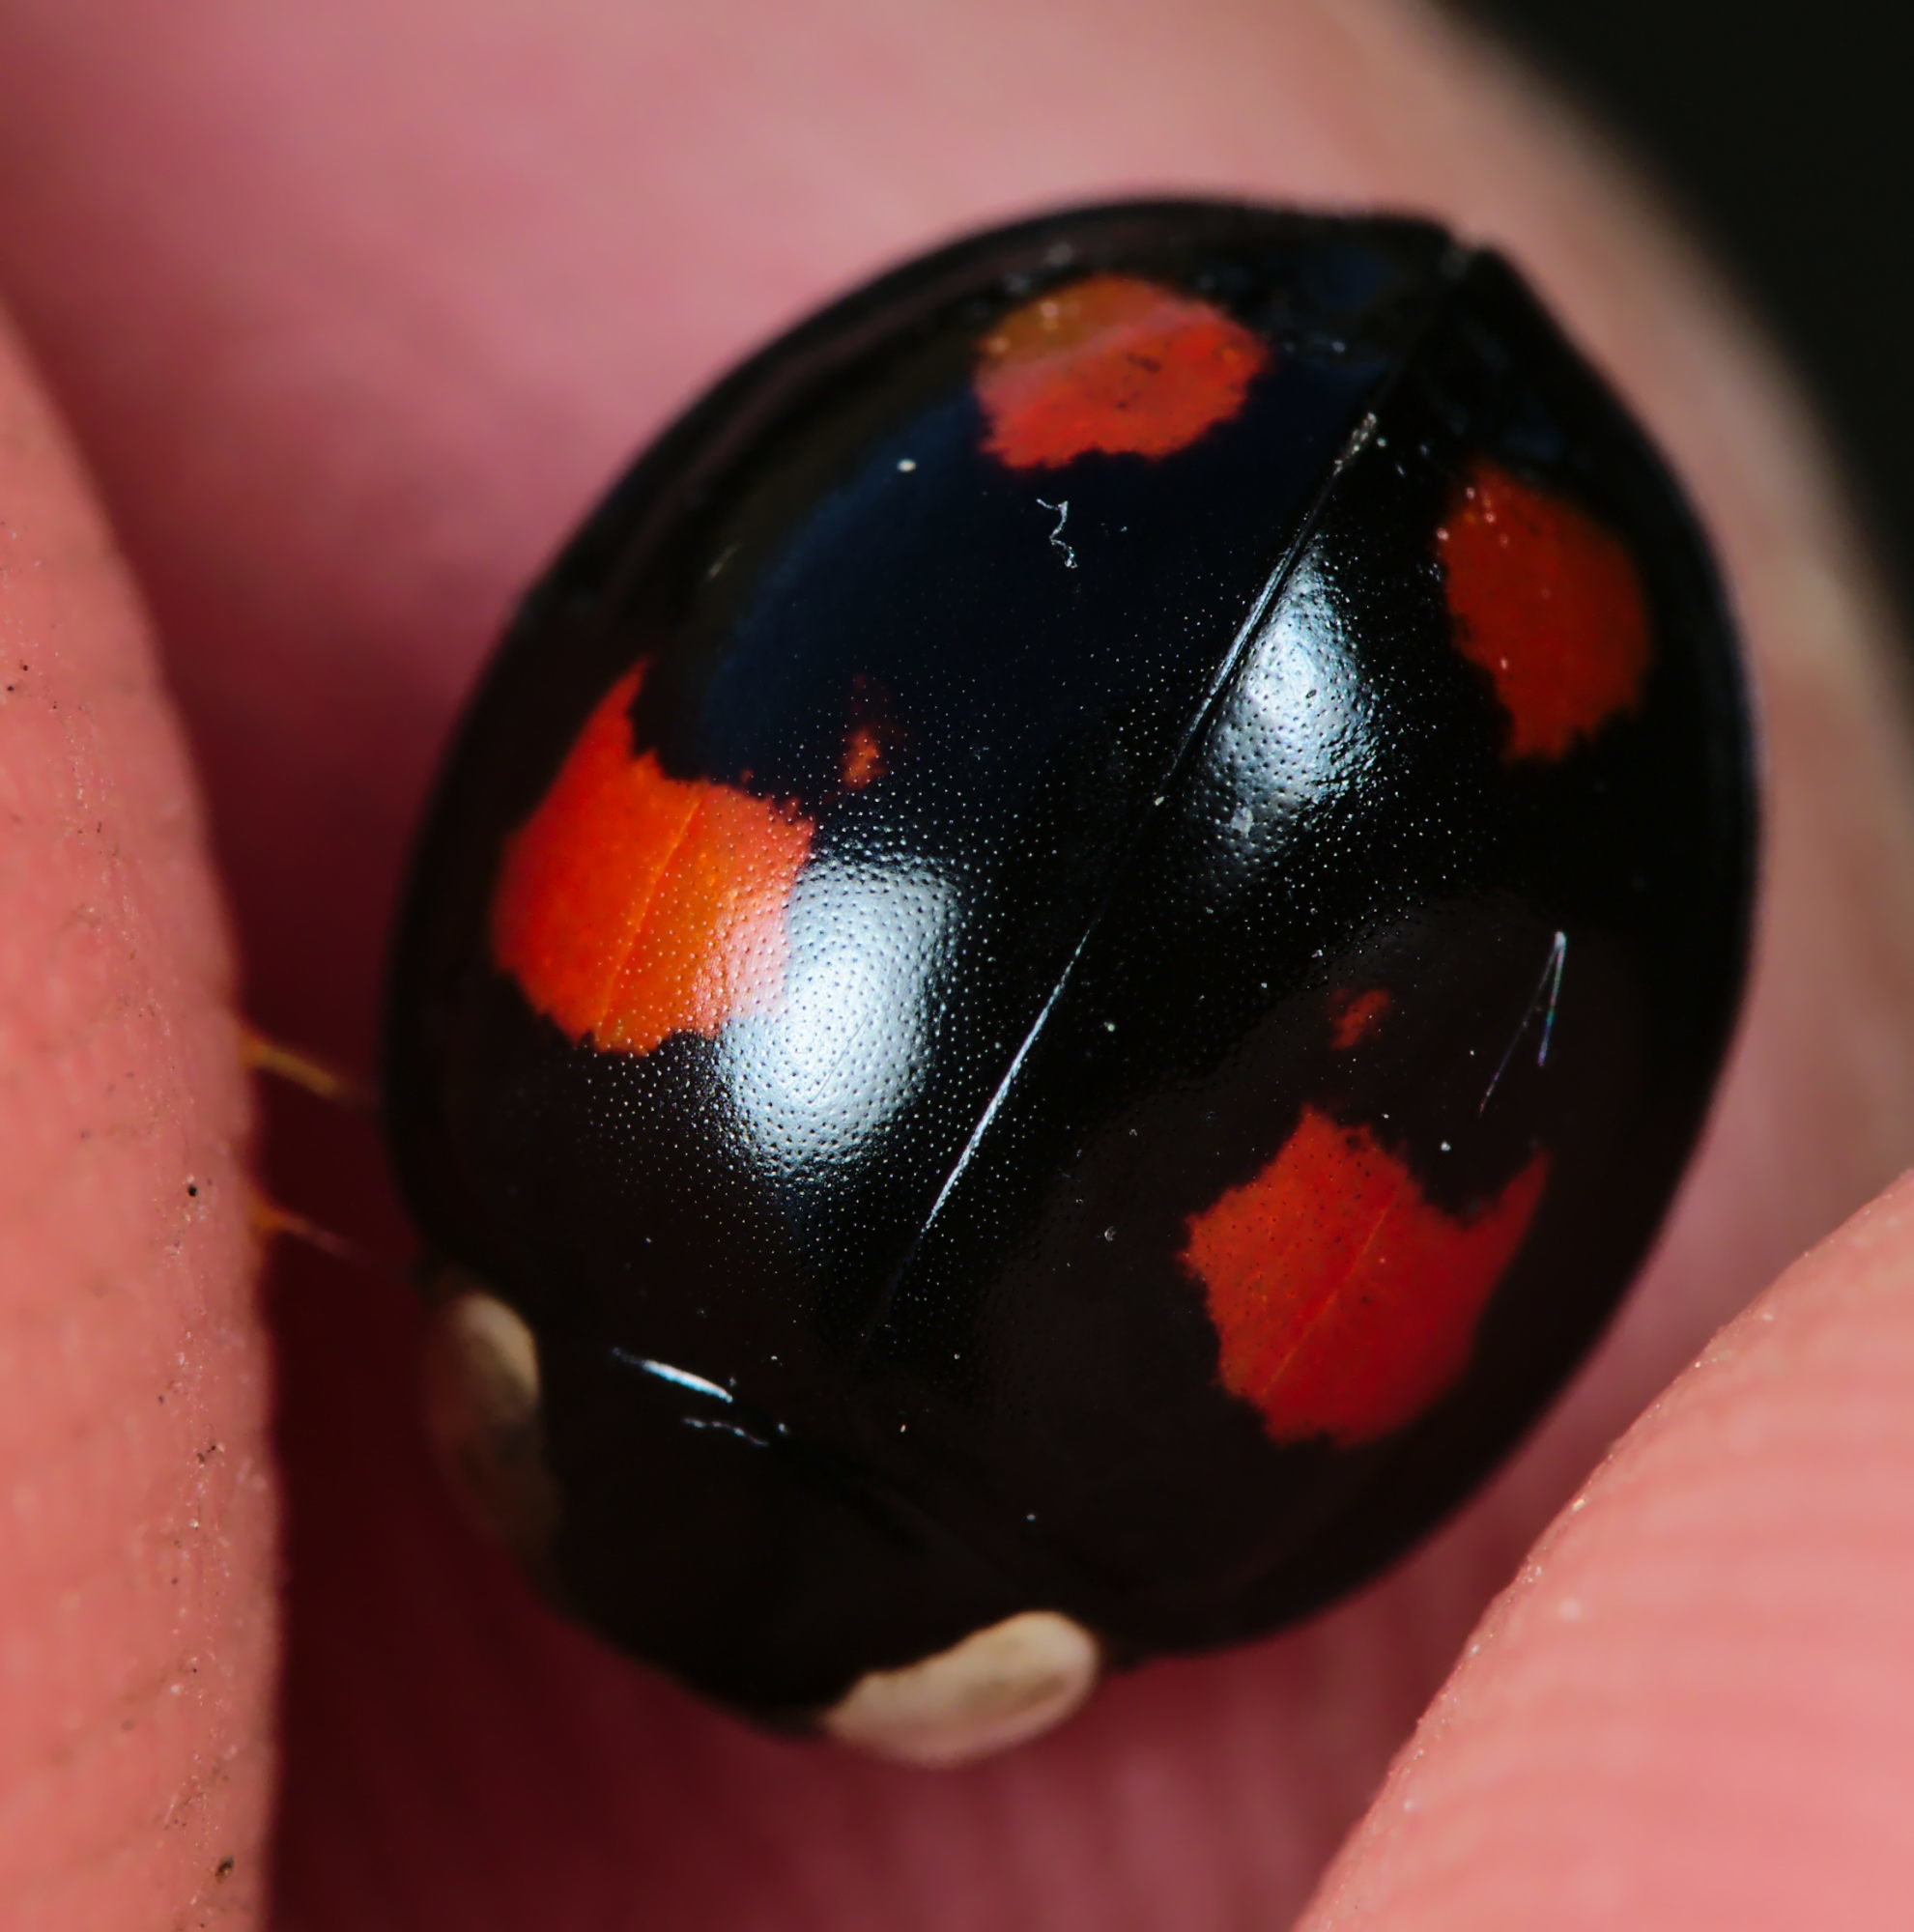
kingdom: Animalia
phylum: Arthropoda
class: Insecta
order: Coleoptera
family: Coccinellidae
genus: Harmonia
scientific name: Harmonia axyridis
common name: Harlequin ladybird
